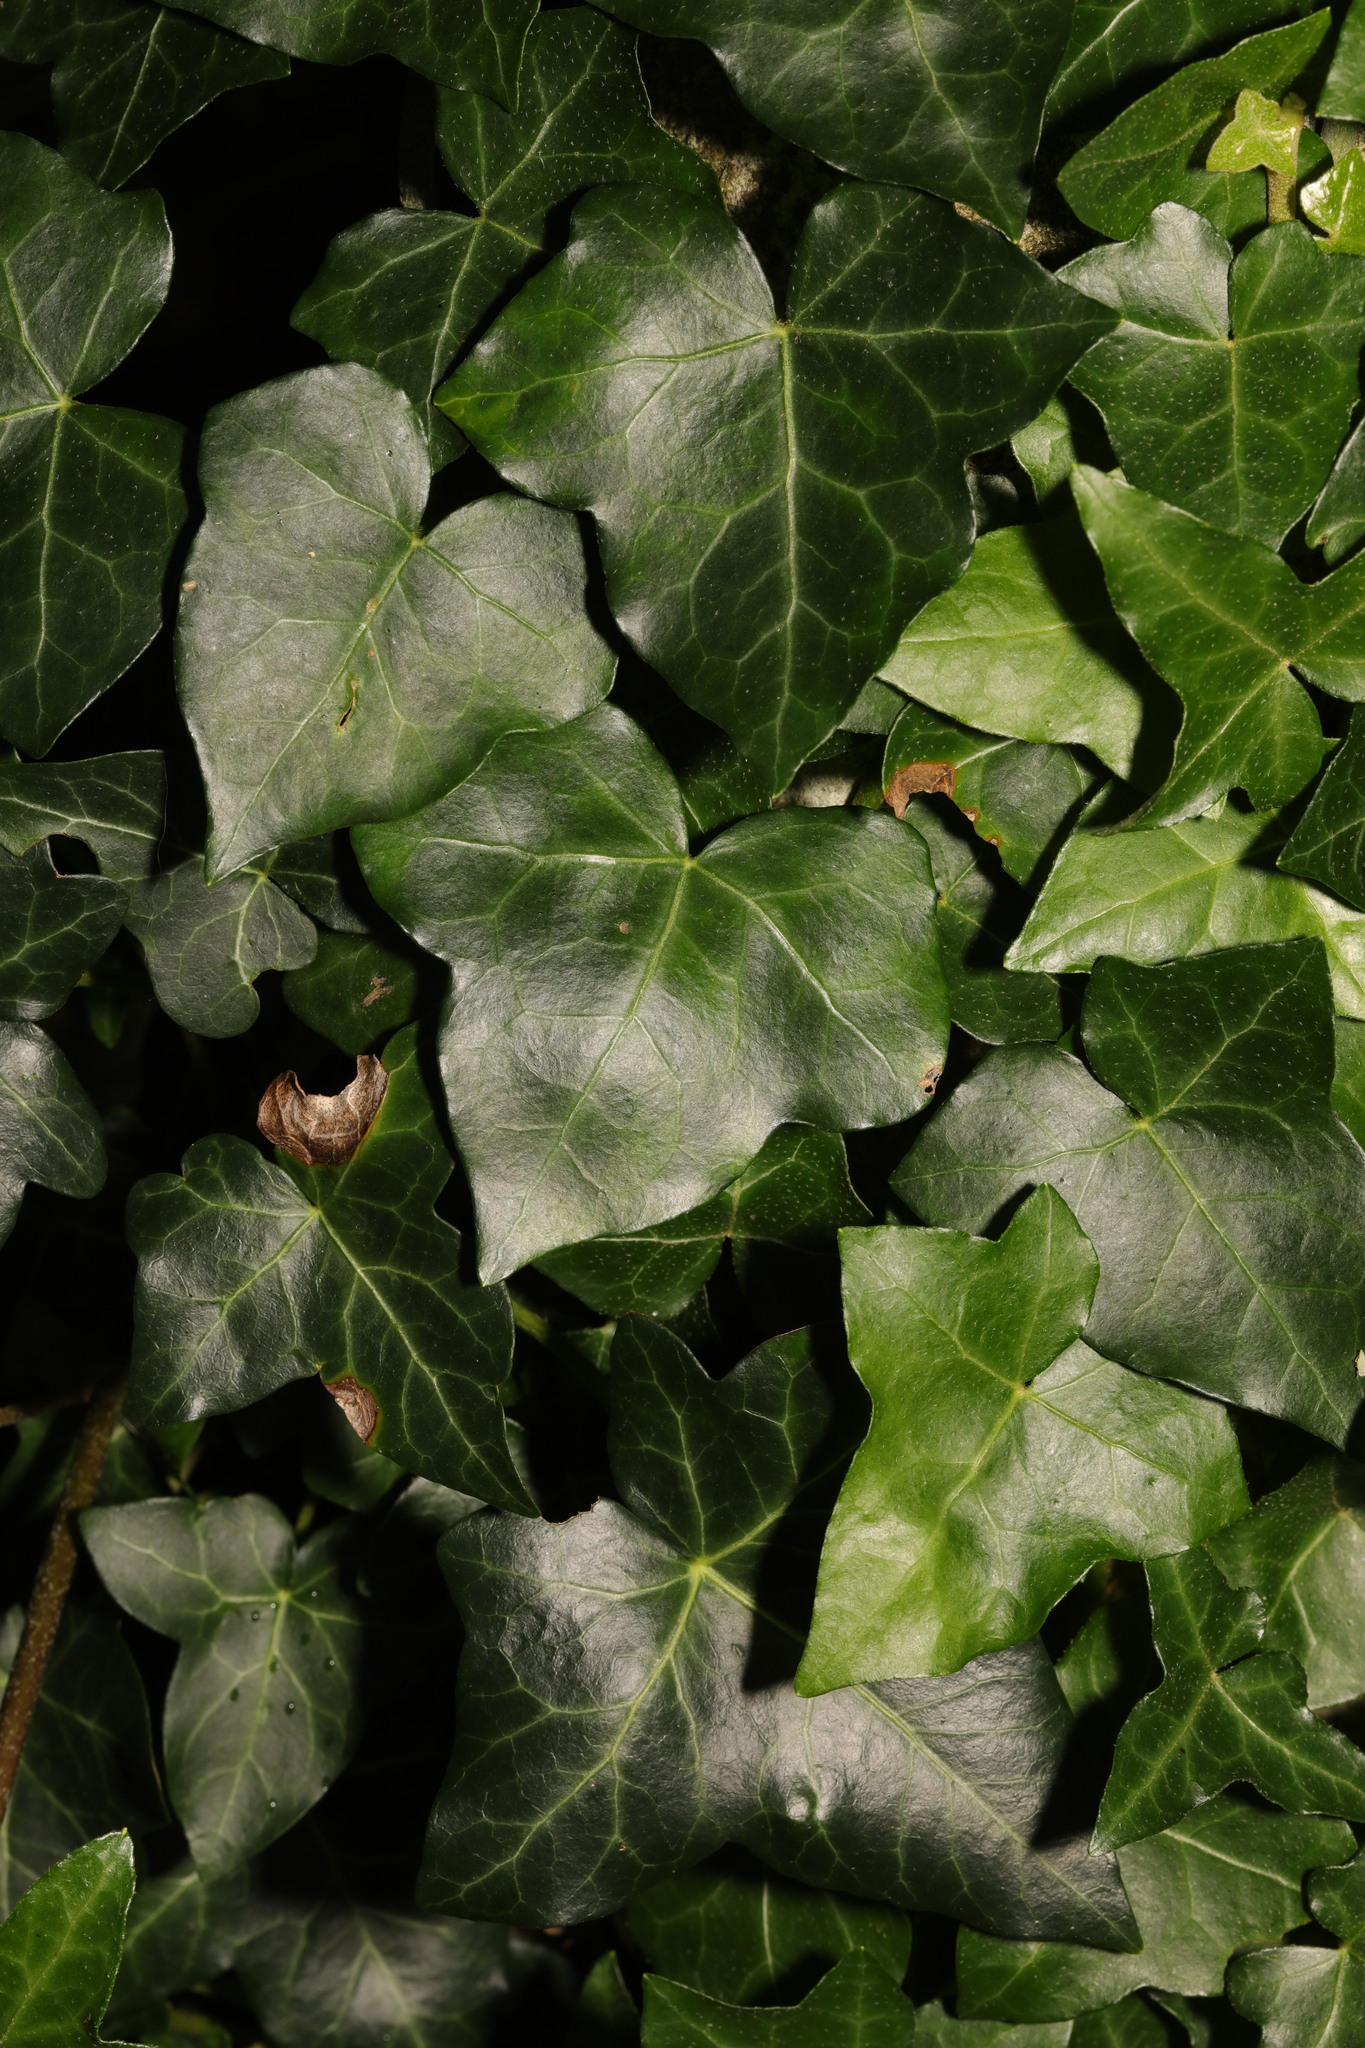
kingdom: Plantae
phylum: Tracheophyta
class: Magnoliopsida
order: Apiales
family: Araliaceae
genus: Hedera
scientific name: Hedera helix
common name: Ivy
